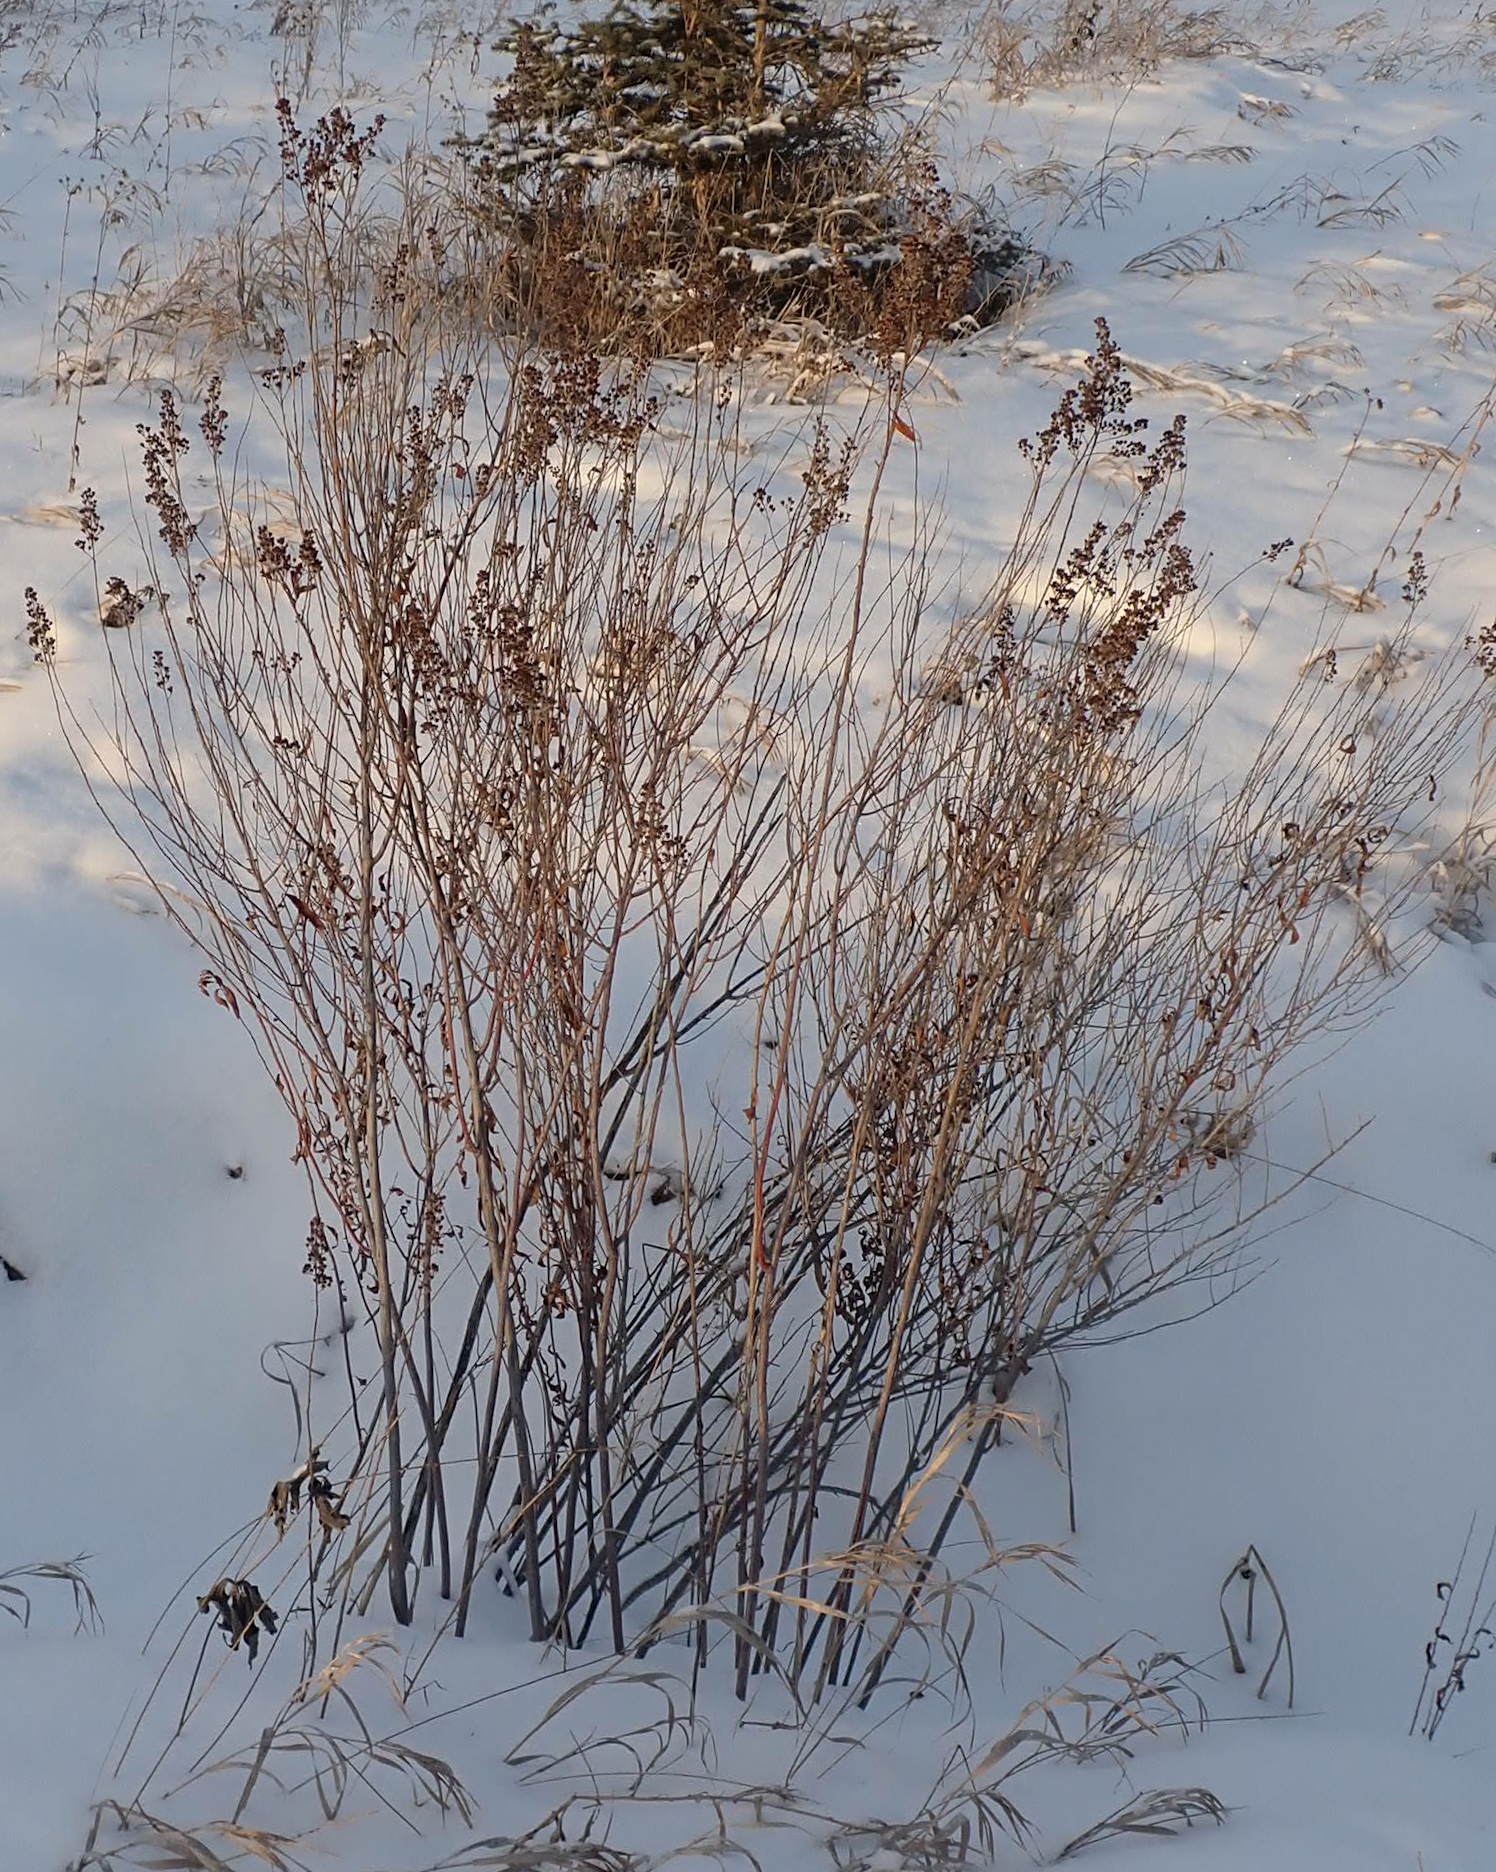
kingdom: Plantae
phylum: Tracheophyta
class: Magnoliopsida
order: Rosales
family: Rosaceae
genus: Spiraea
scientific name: Spiraea alba
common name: Pale bridewort
